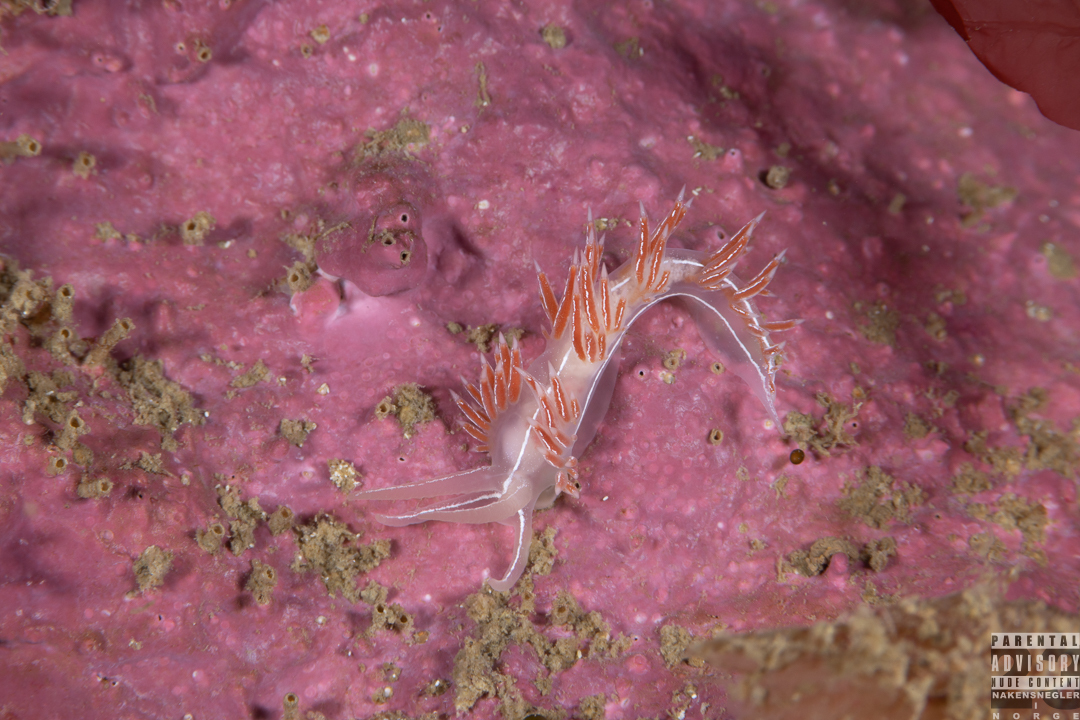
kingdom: Animalia
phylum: Mollusca
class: Gastropoda
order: Nudibranchia
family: Coryphellidae
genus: Coryphella
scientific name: Coryphella chriskaugei
